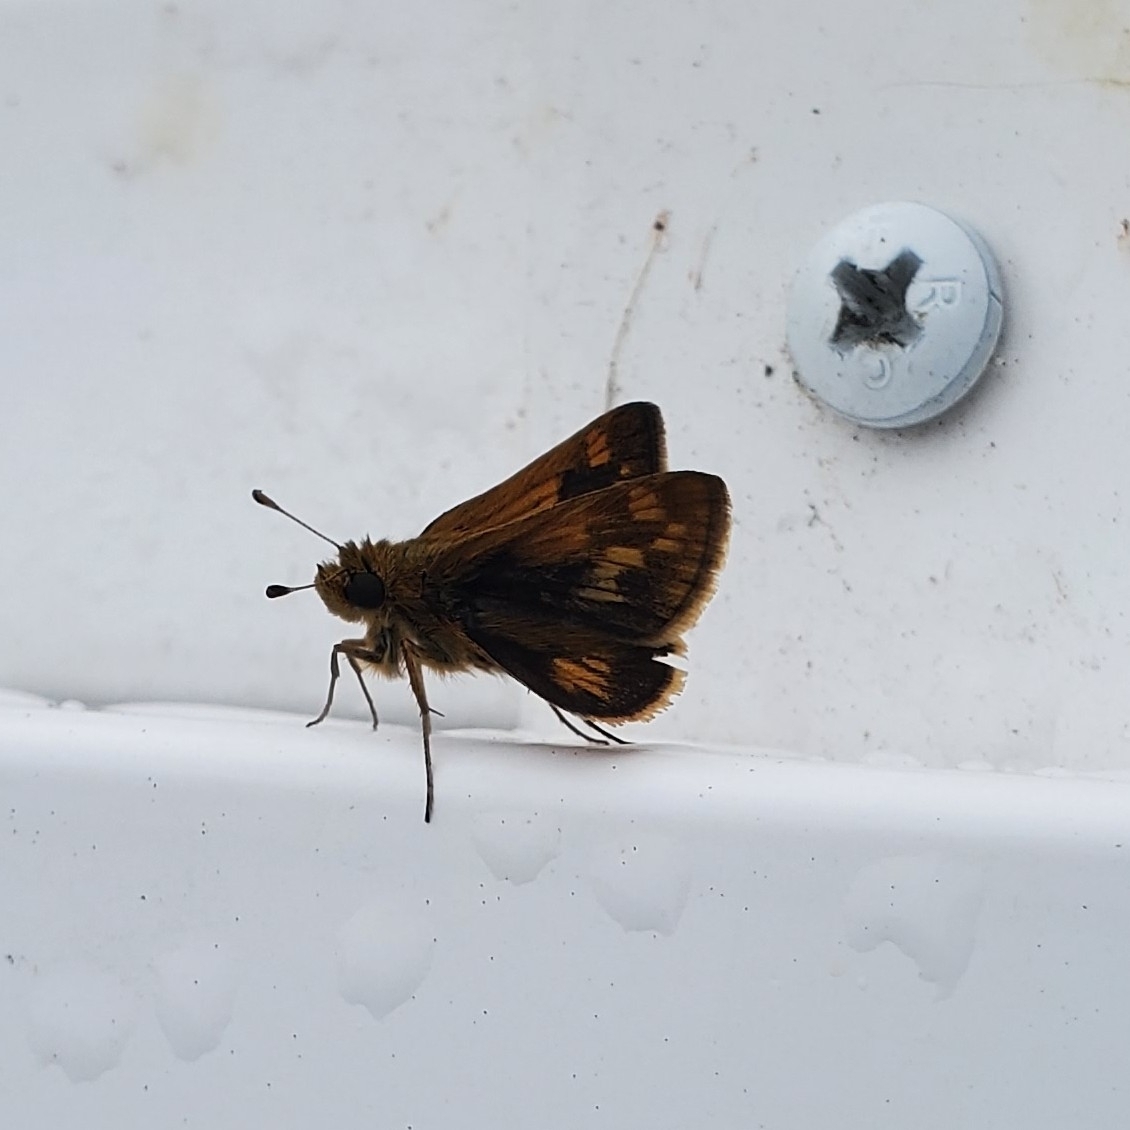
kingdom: Animalia
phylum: Arthropoda
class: Insecta
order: Lepidoptera
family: Hesperiidae
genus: Polites
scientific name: Polites coras
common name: Peck's skipper
